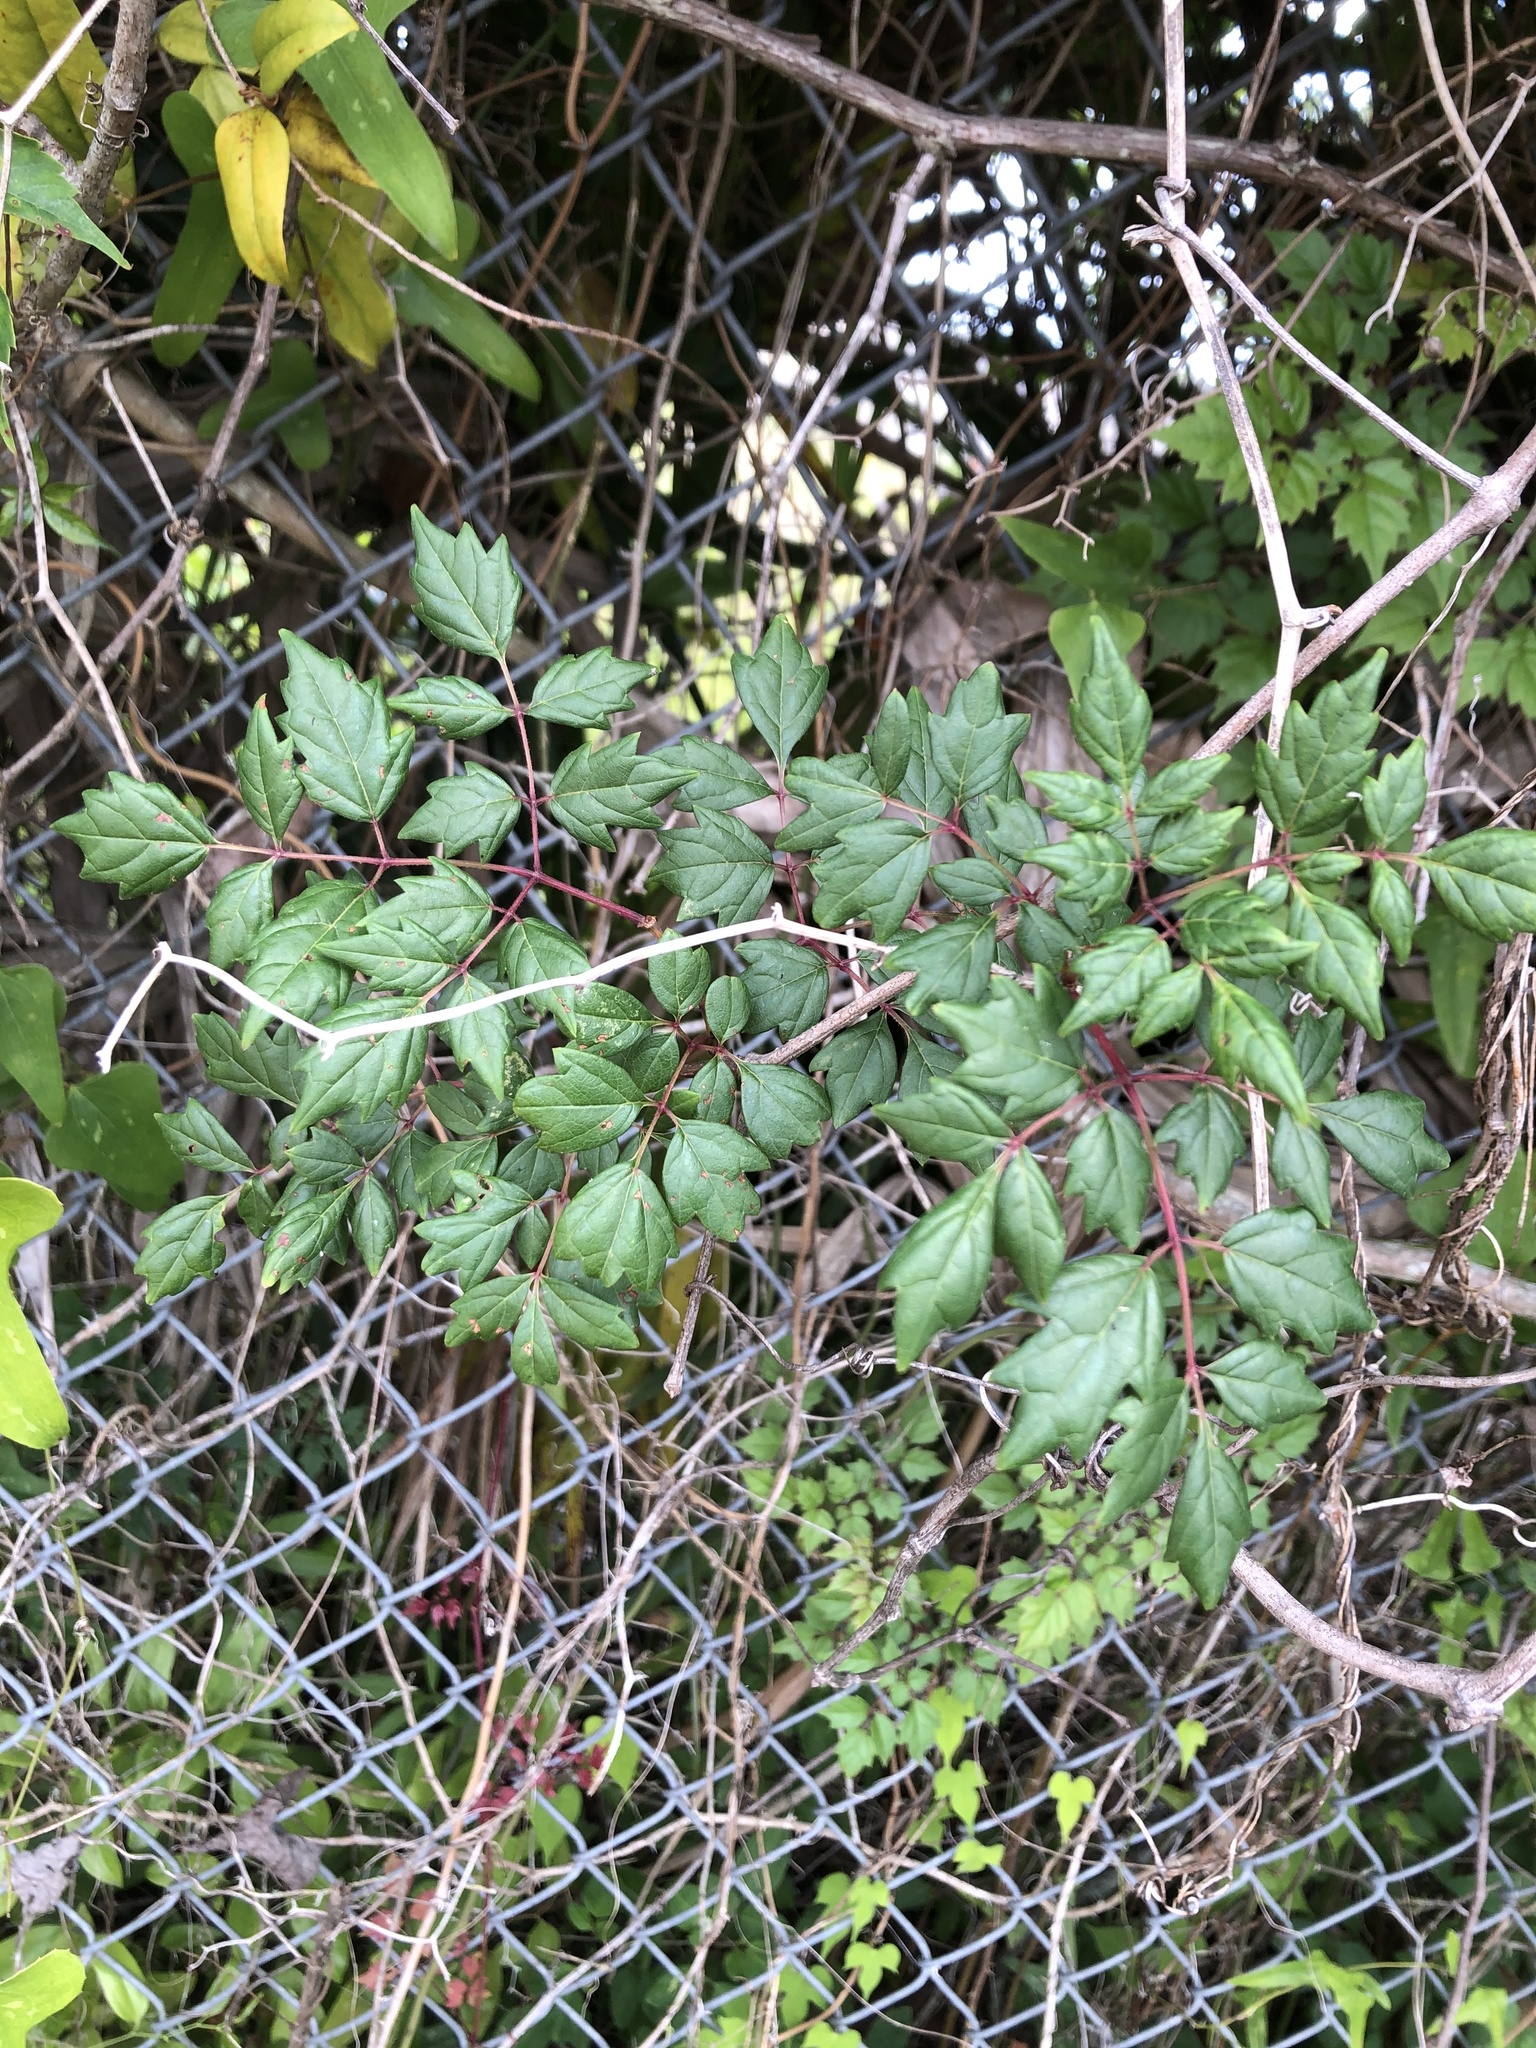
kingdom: Plantae
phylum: Tracheophyta
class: Magnoliopsida
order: Vitales
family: Vitaceae
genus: Nekemias
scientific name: Nekemias arborea
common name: Peppervine
